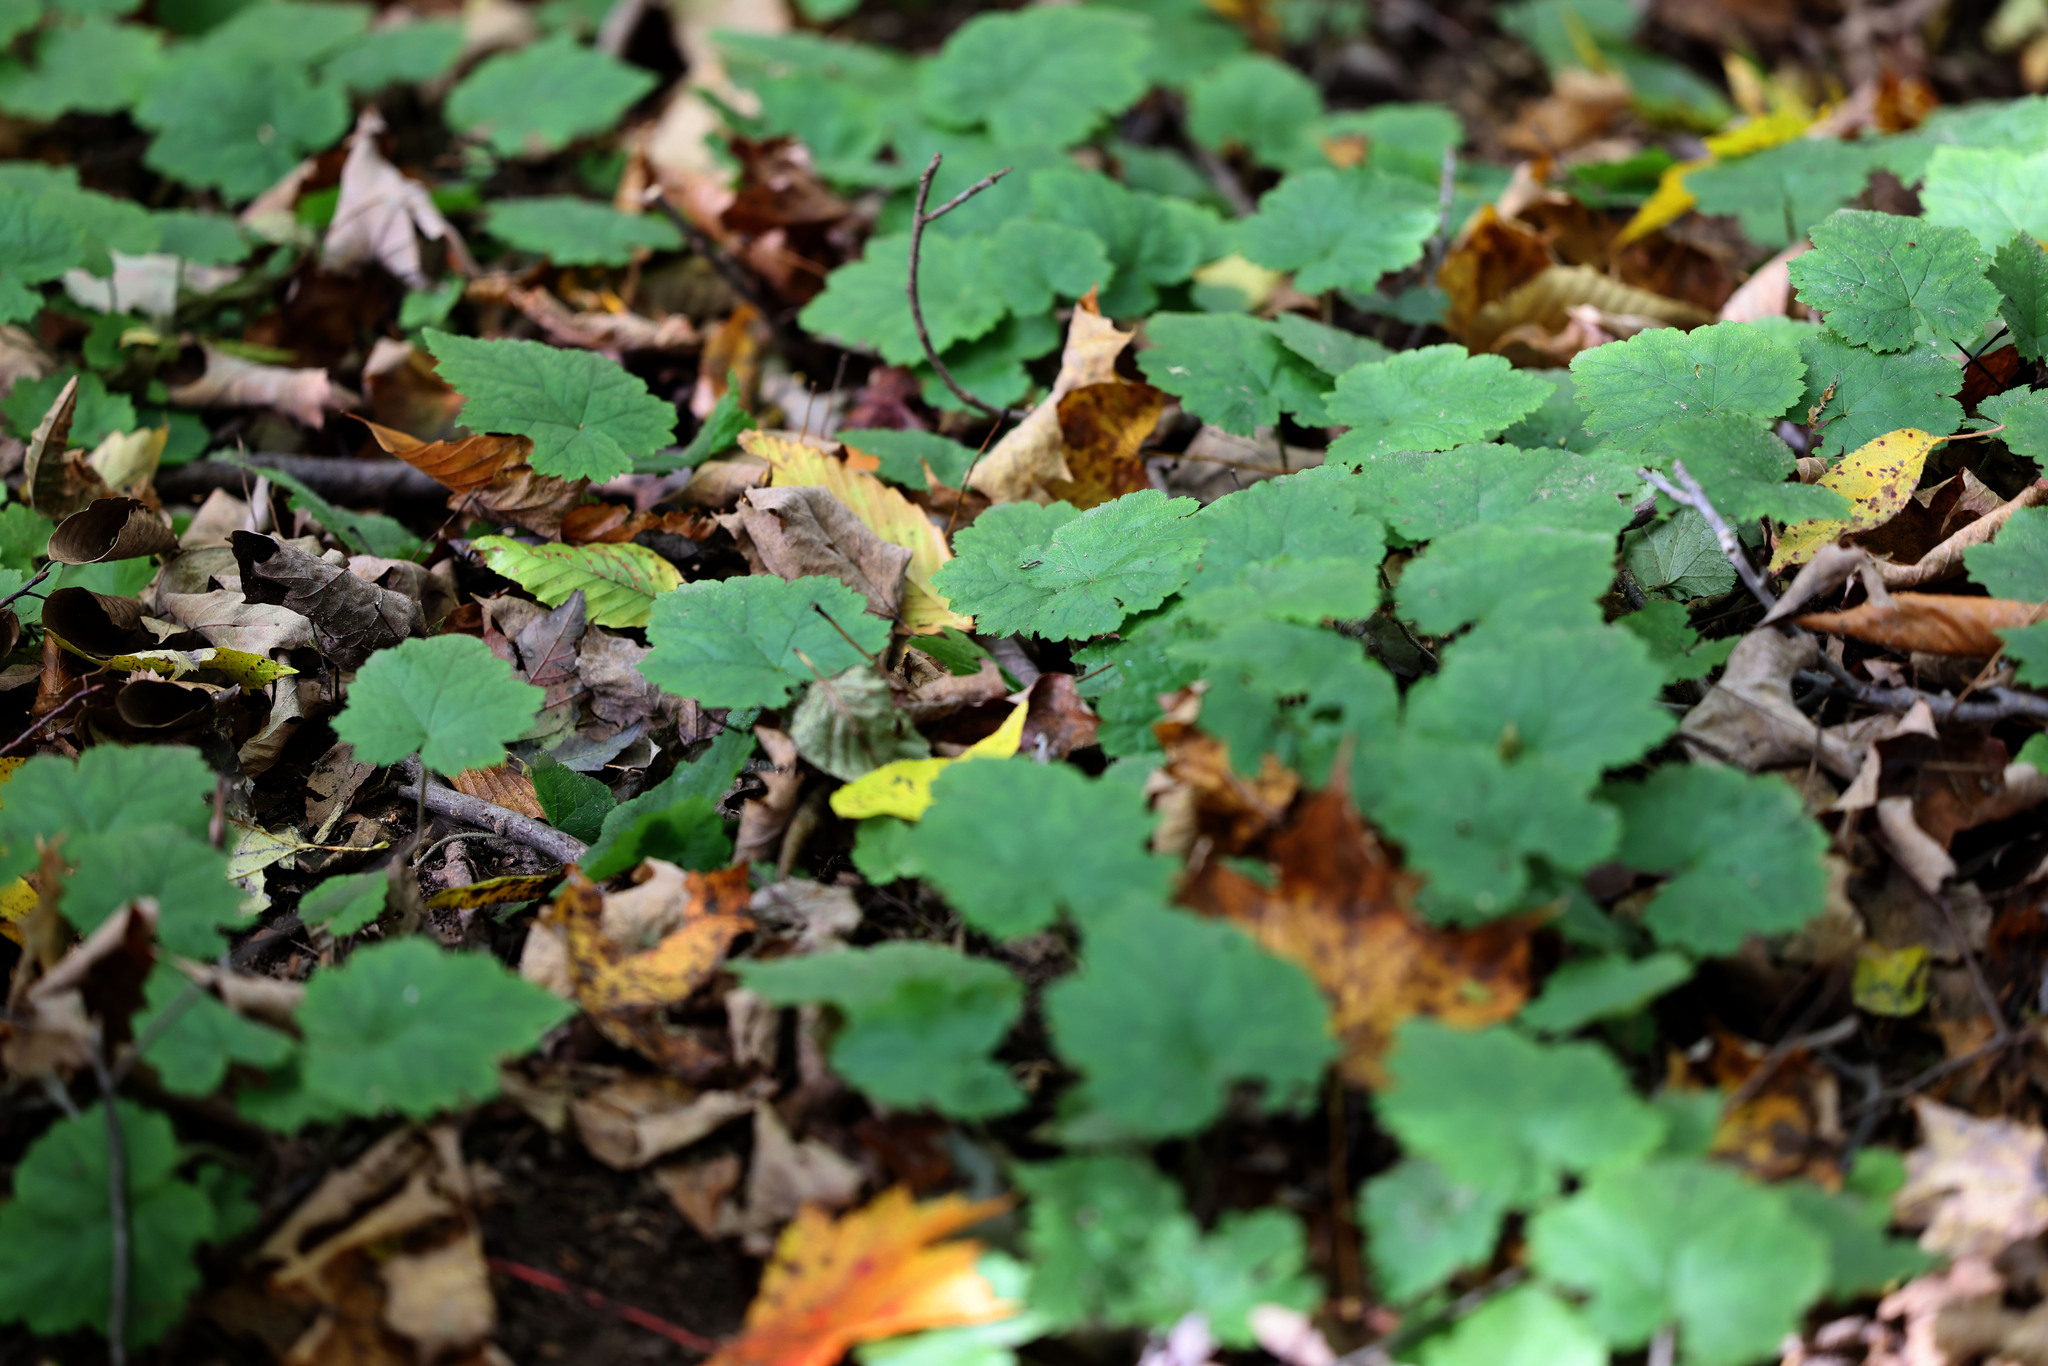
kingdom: Plantae
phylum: Tracheophyta
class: Magnoliopsida
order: Saxifragales
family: Saxifragaceae
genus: Tiarella
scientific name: Tiarella stolonifera
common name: Stoloniferous foamflower
